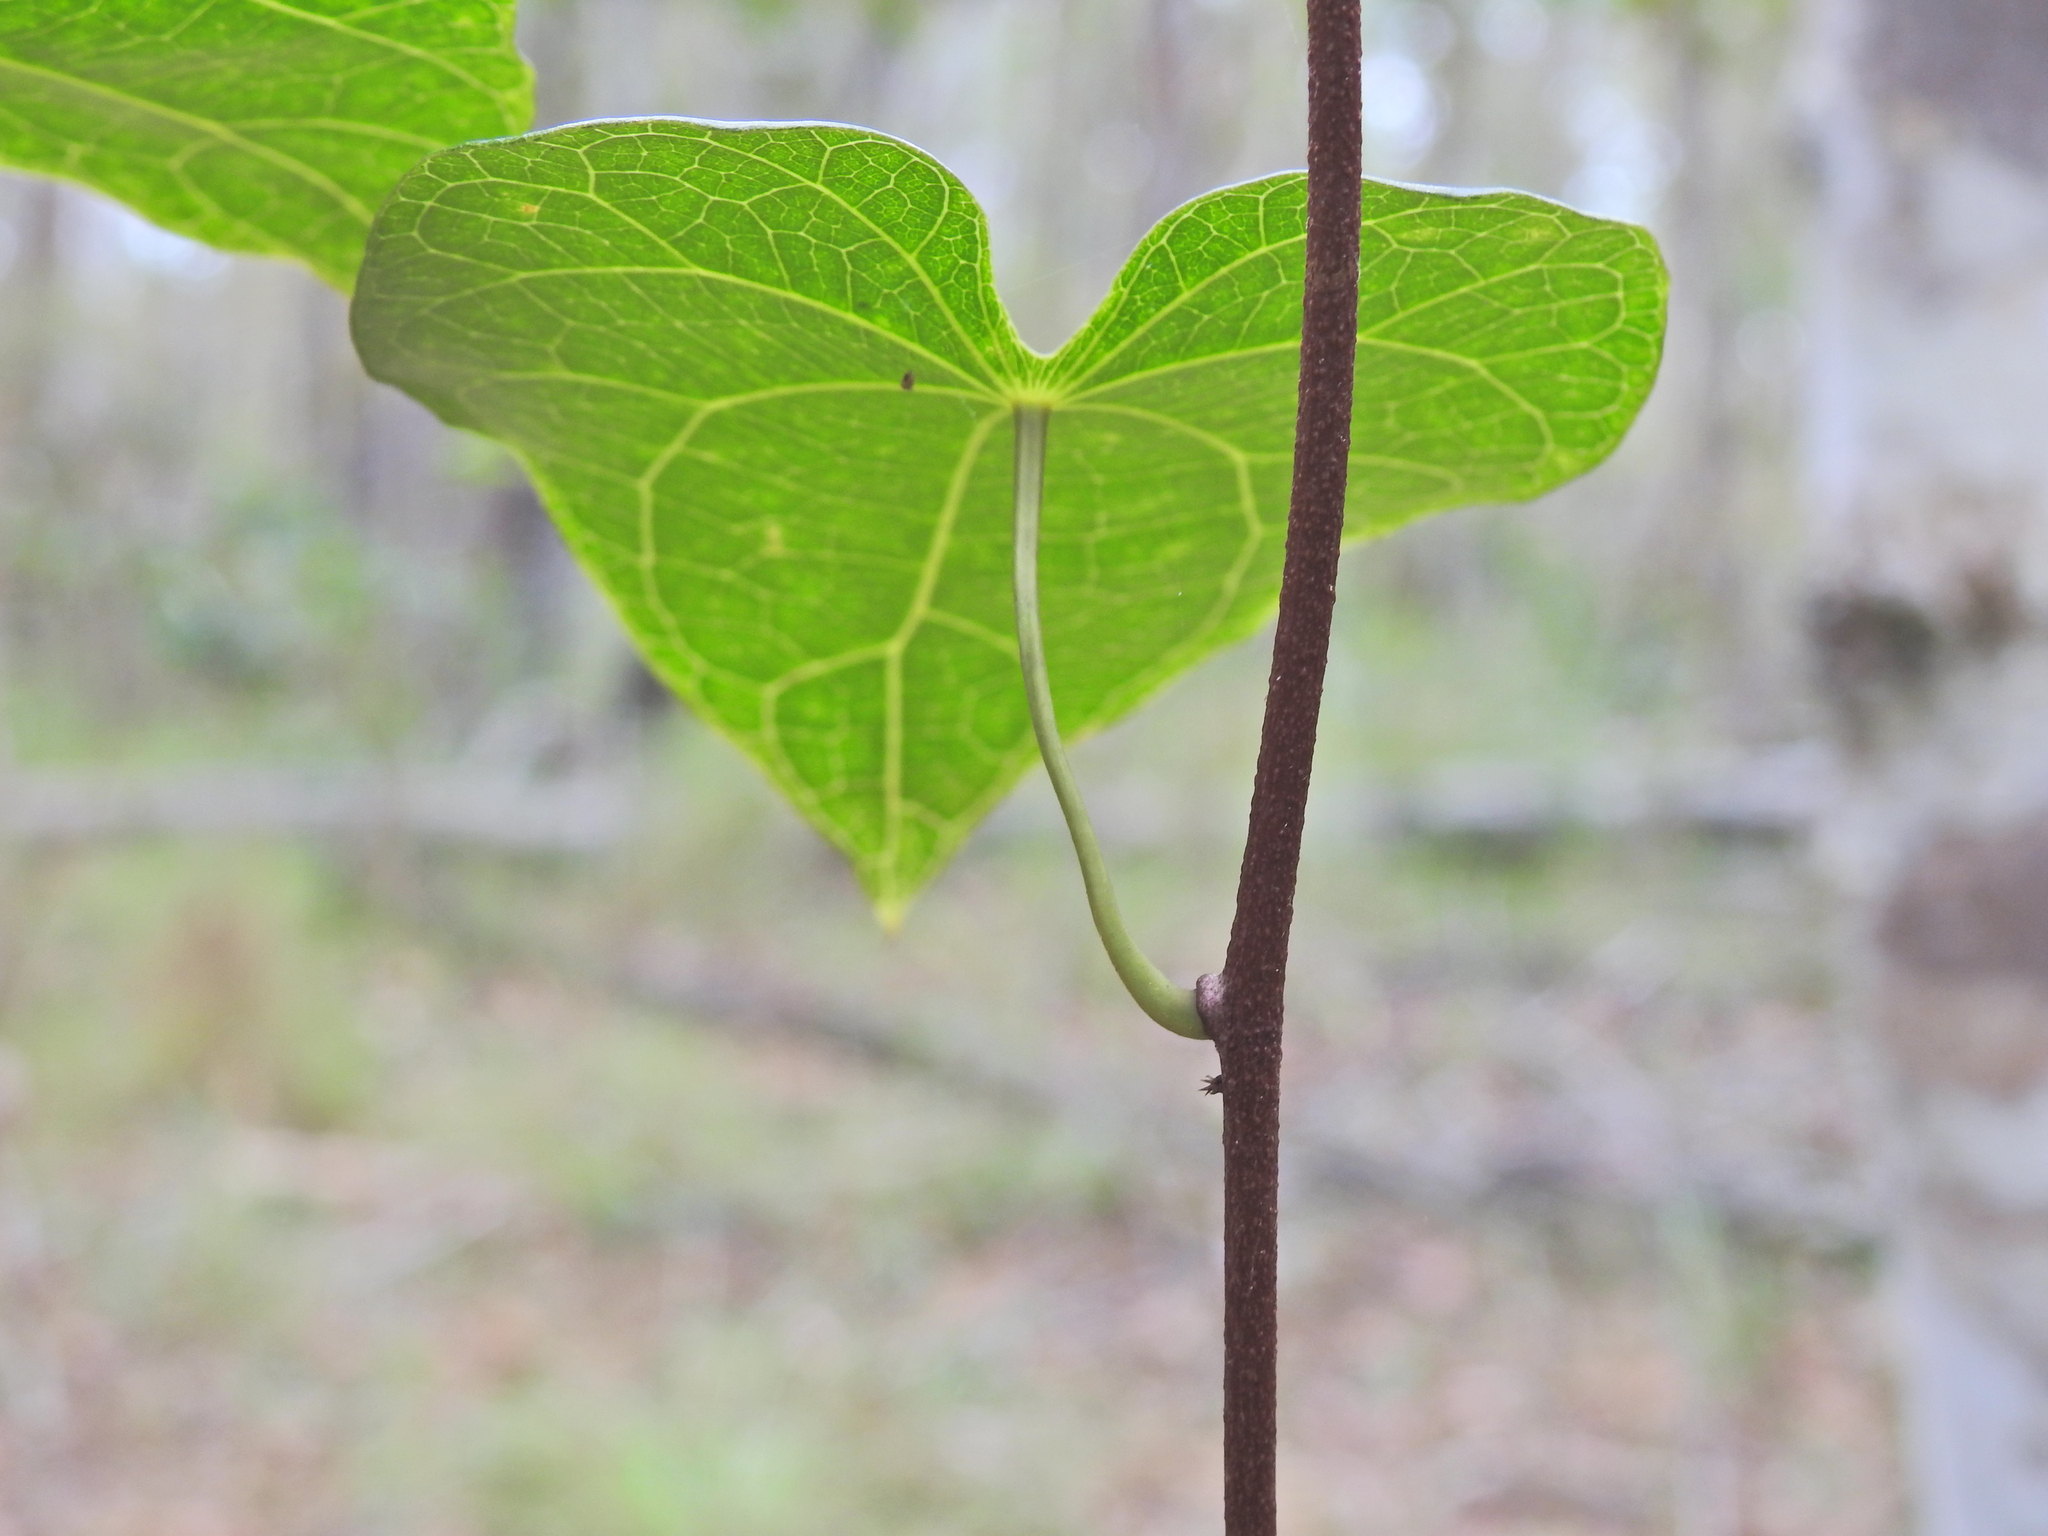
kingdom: Plantae
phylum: Tracheophyta
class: Magnoliopsida
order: Ranunculales
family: Menispermaceae
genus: Sarcopetalum
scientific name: Sarcopetalum harveyanum
